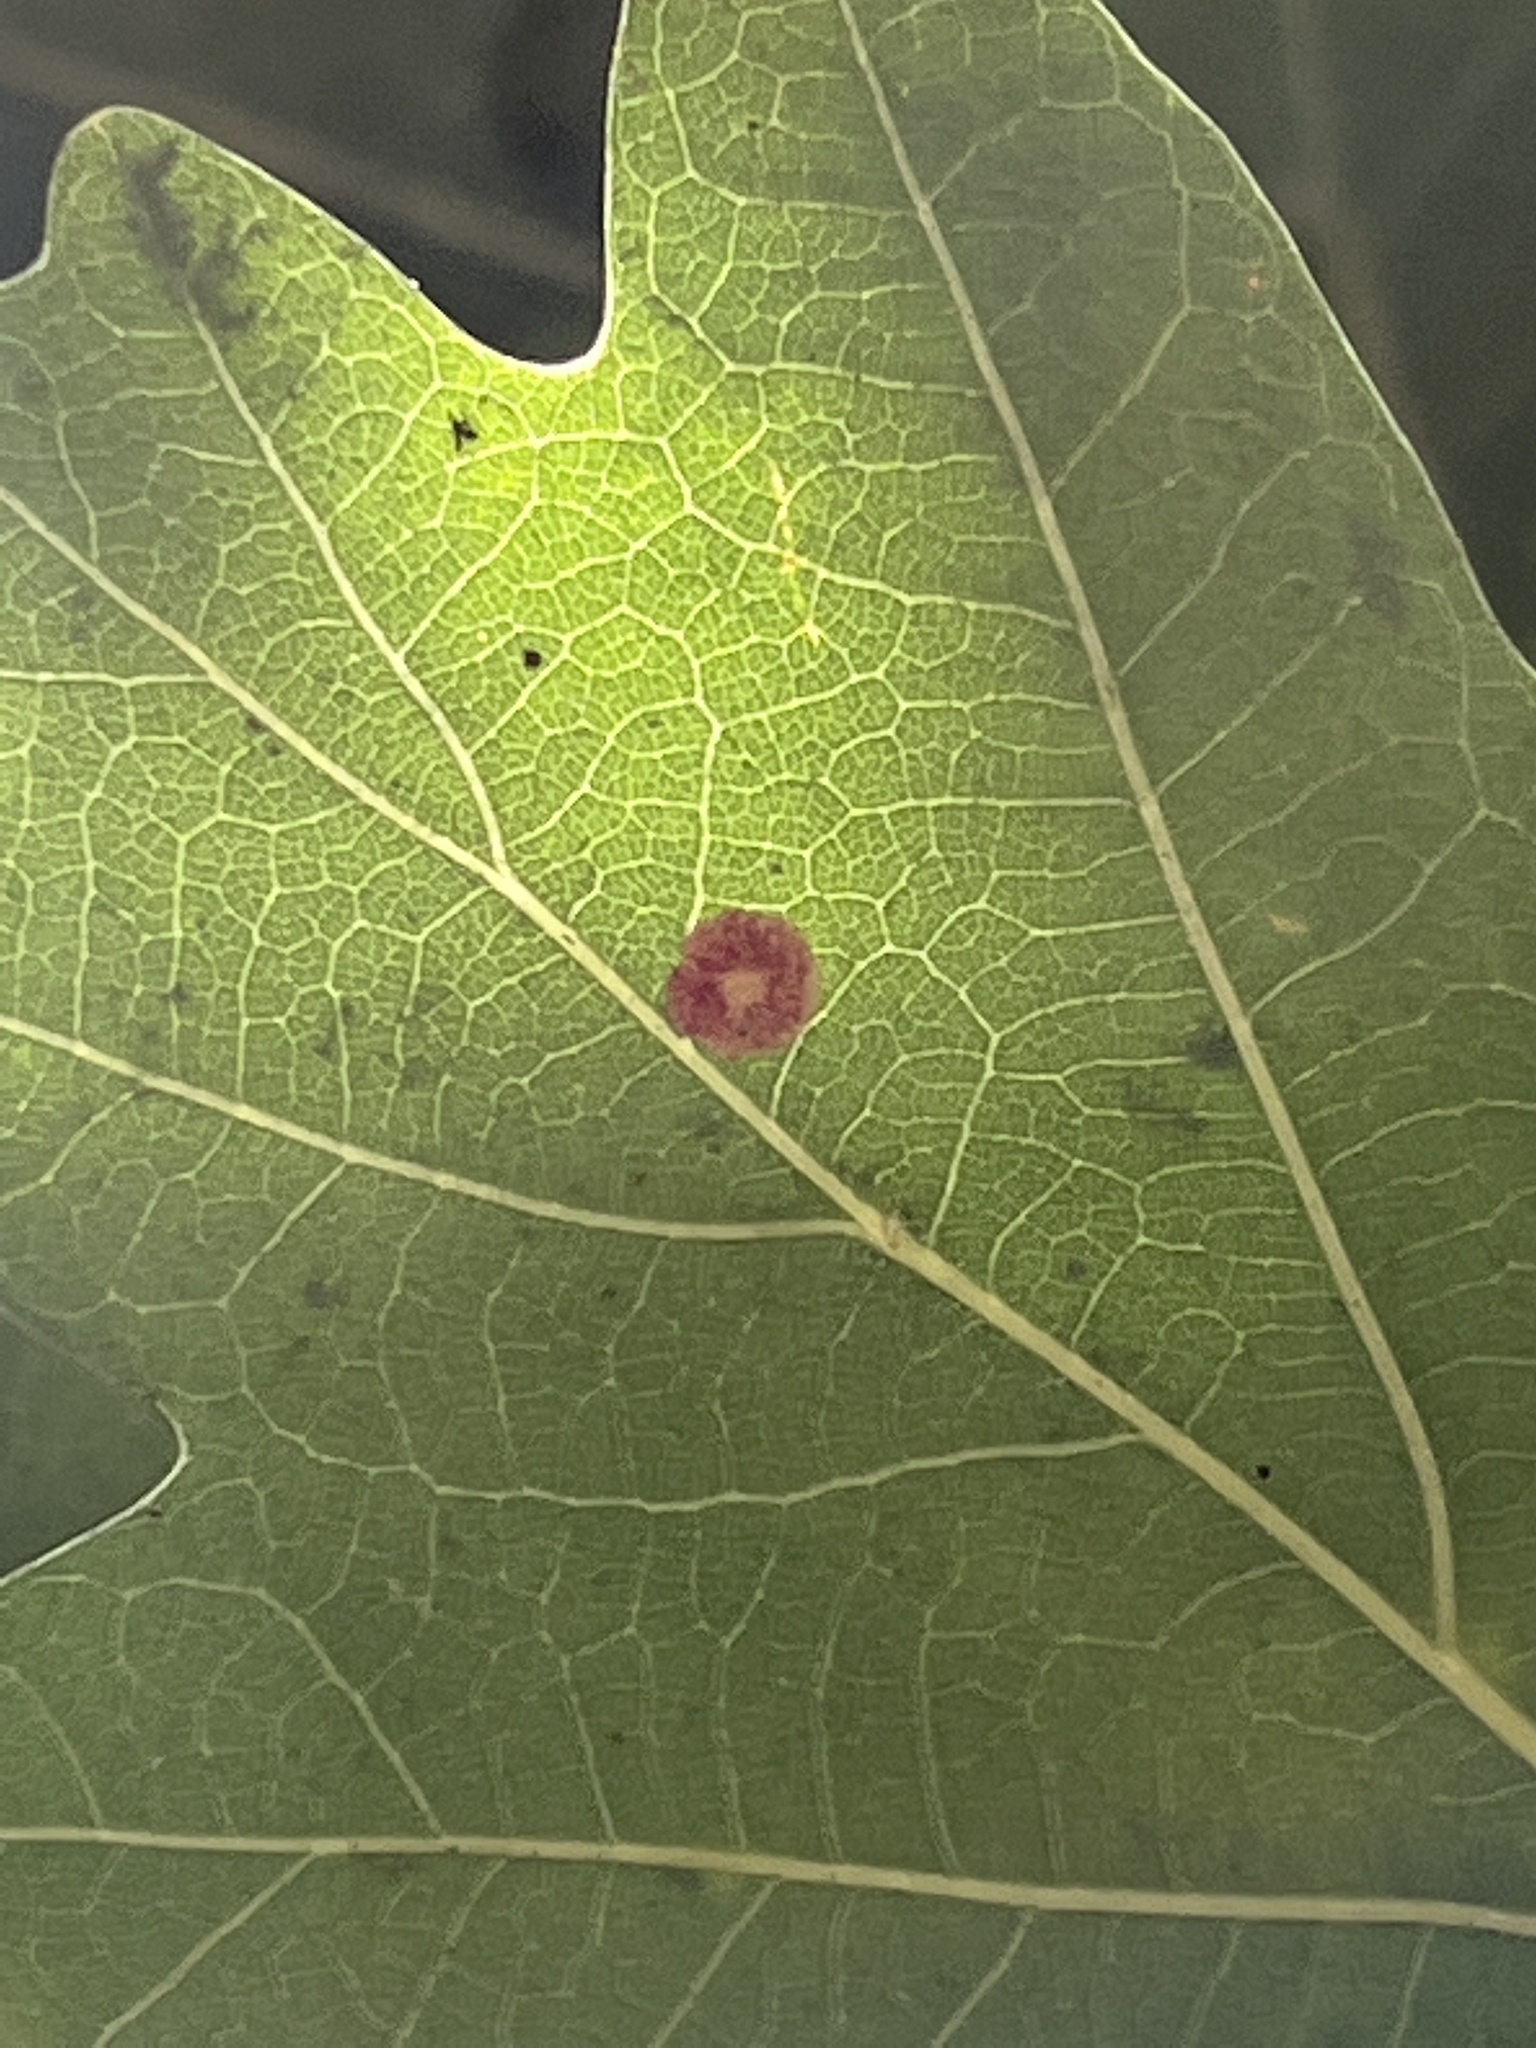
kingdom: Animalia
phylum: Arthropoda
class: Insecta
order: Hymenoptera
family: Cynipidae
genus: Neuroterus
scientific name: Neuroterus quercusbaccarum
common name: Common spangle gall
